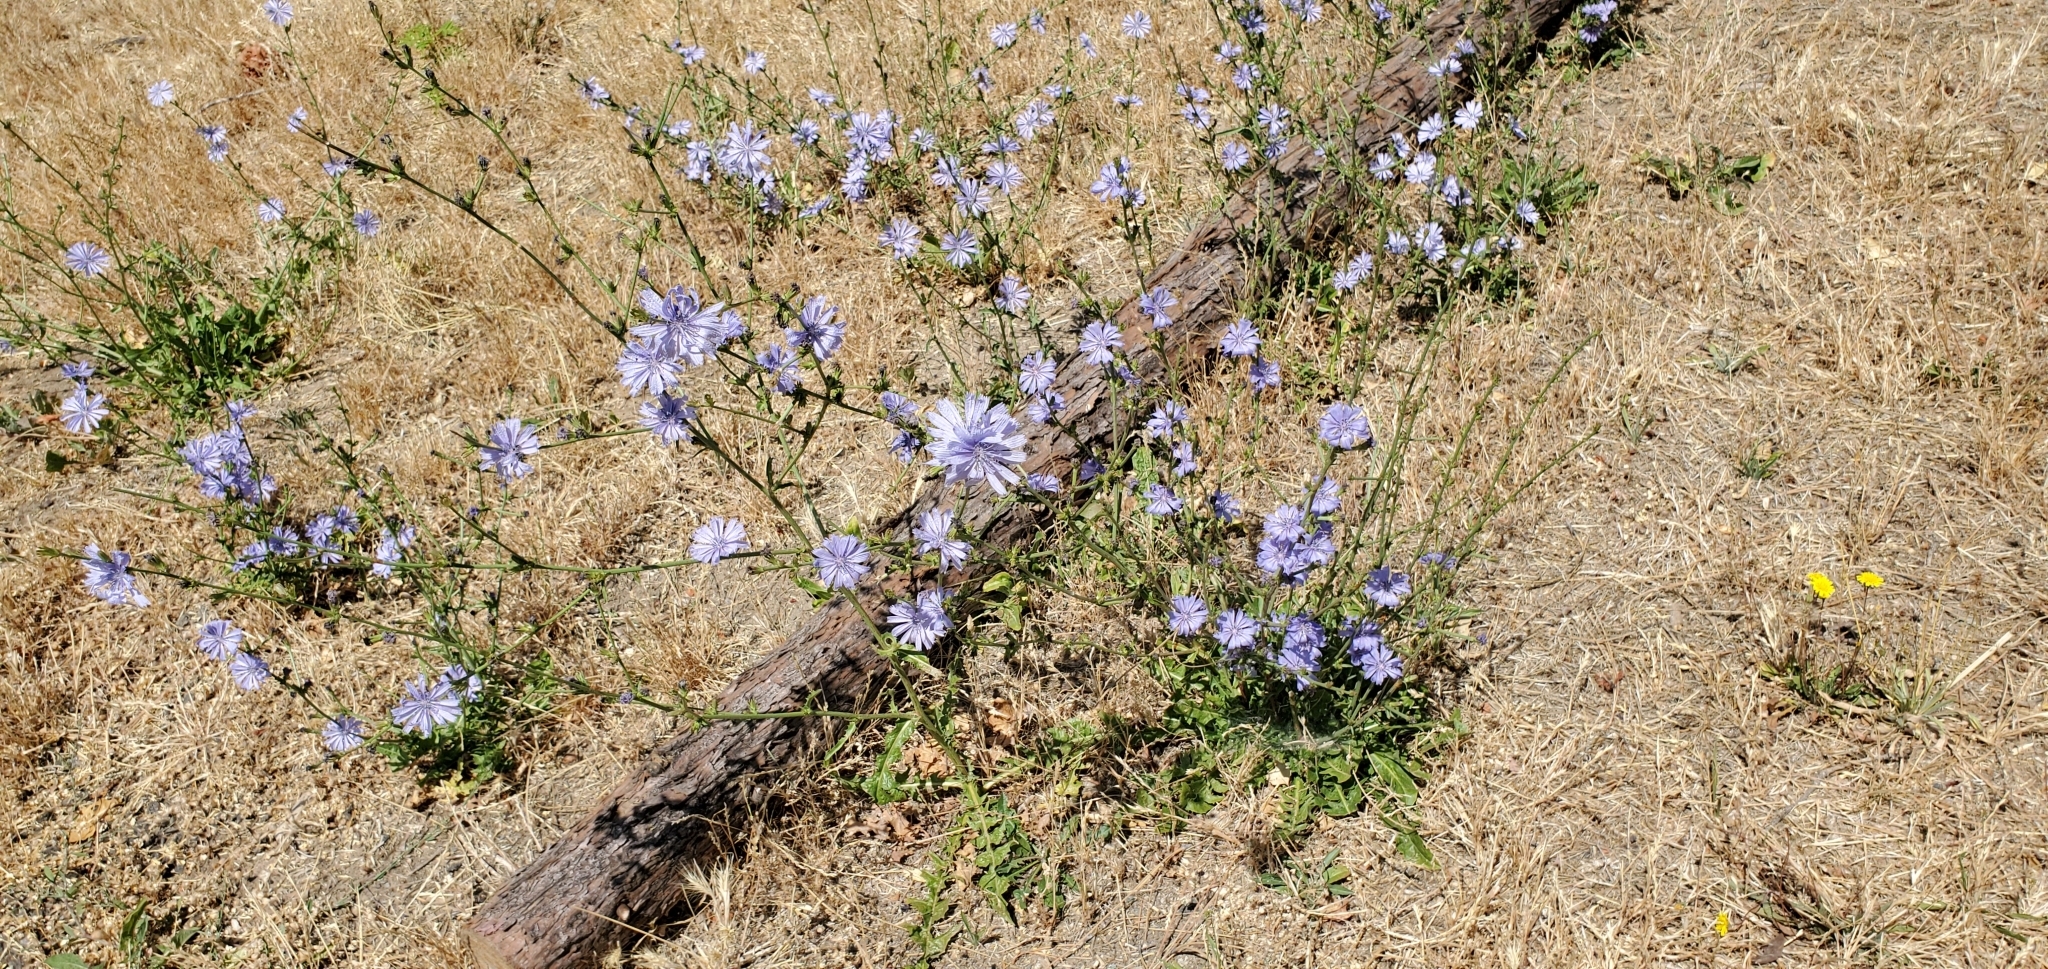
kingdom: Plantae
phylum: Tracheophyta
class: Magnoliopsida
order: Asterales
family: Asteraceae
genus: Cichorium
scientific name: Cichorium intybus
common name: Chicory
